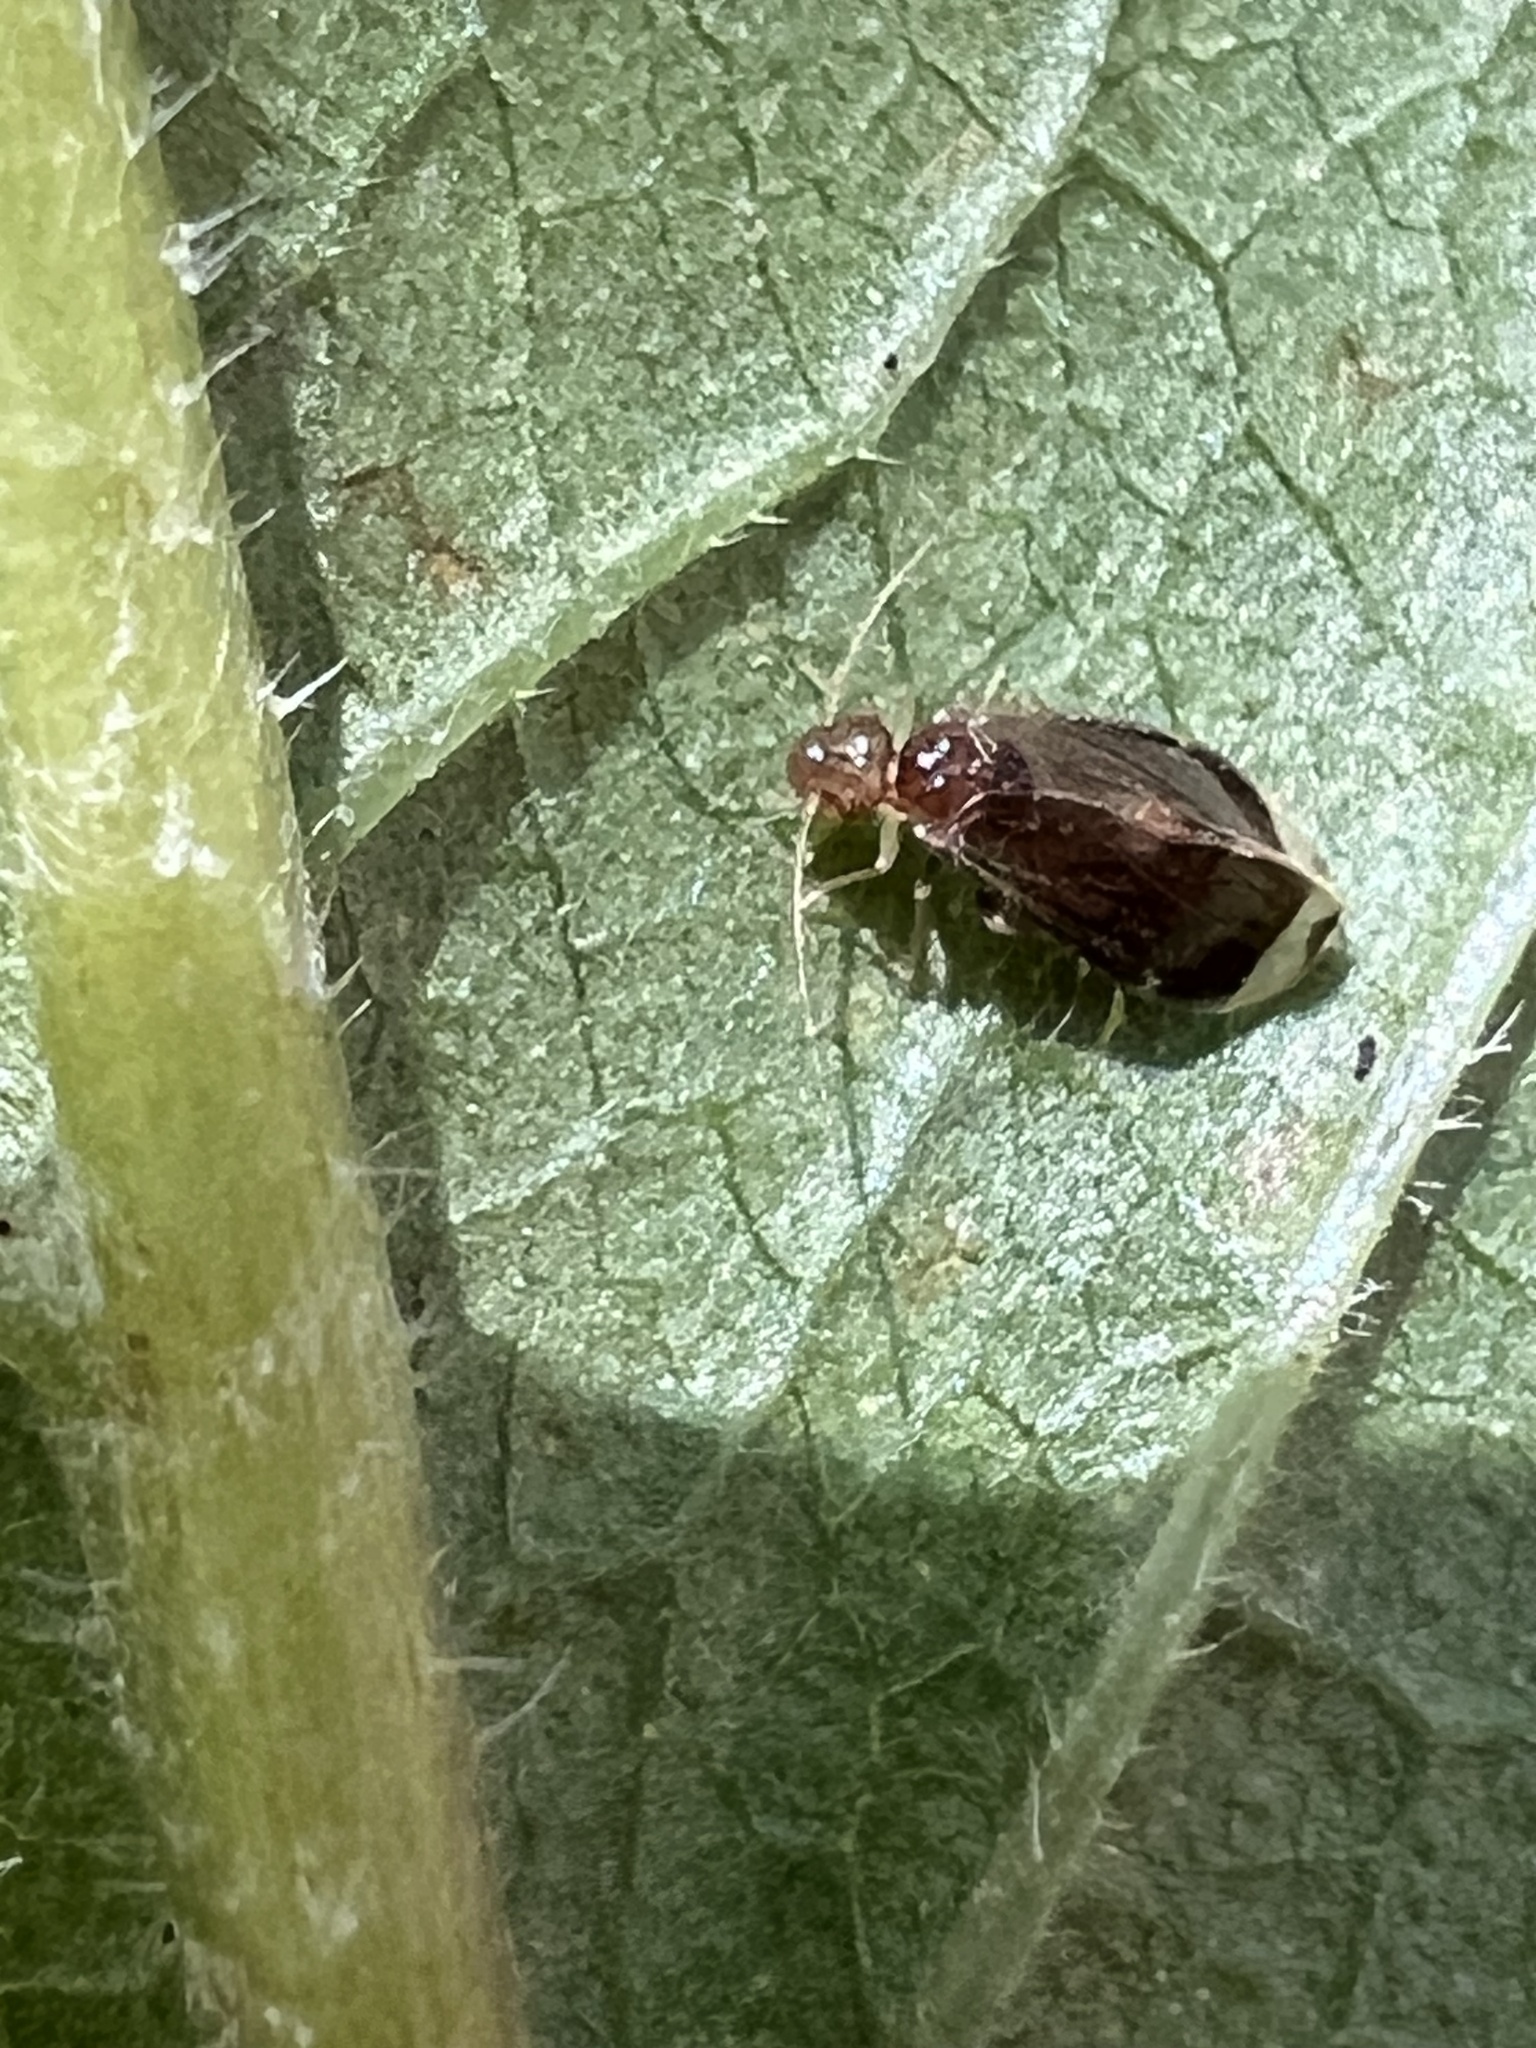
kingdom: Animalia
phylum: Arthropoda
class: Insecta
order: Psocodea
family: Amphipsocidae
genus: Polypsocus
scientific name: Polypsocus corruptus
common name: Corrupt barklouse
